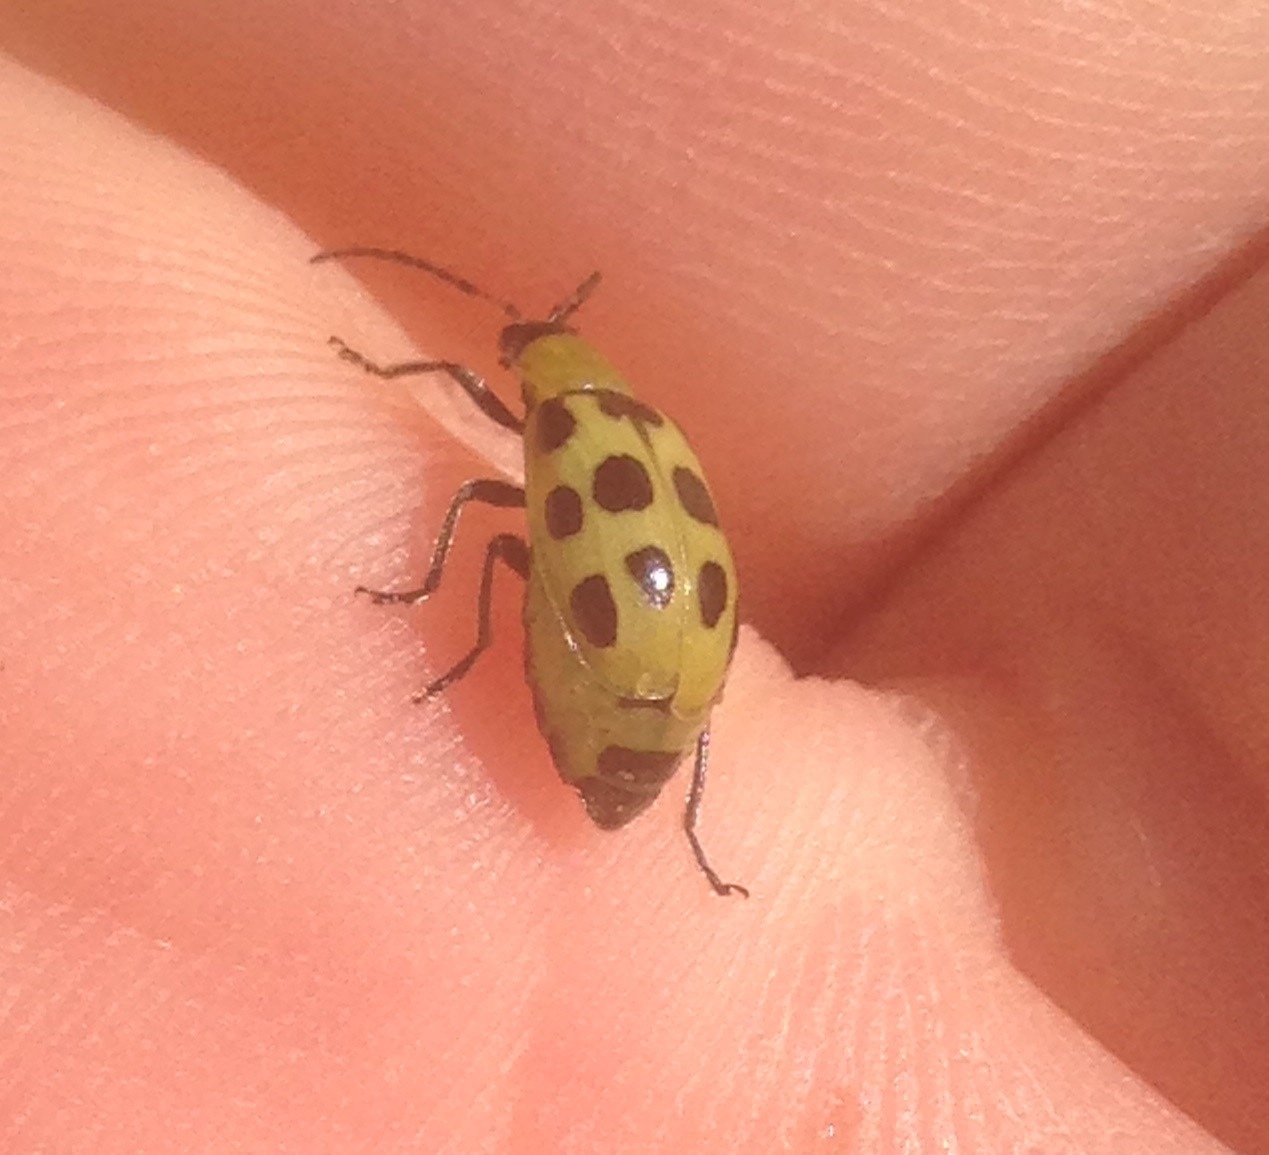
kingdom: Animalia
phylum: Arthropoda
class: Insecta
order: Coleoptera
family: Chrysomelidae
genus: Diabrotica
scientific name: Diabrotica undecimpunctata
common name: Spotted cucumber beetle
